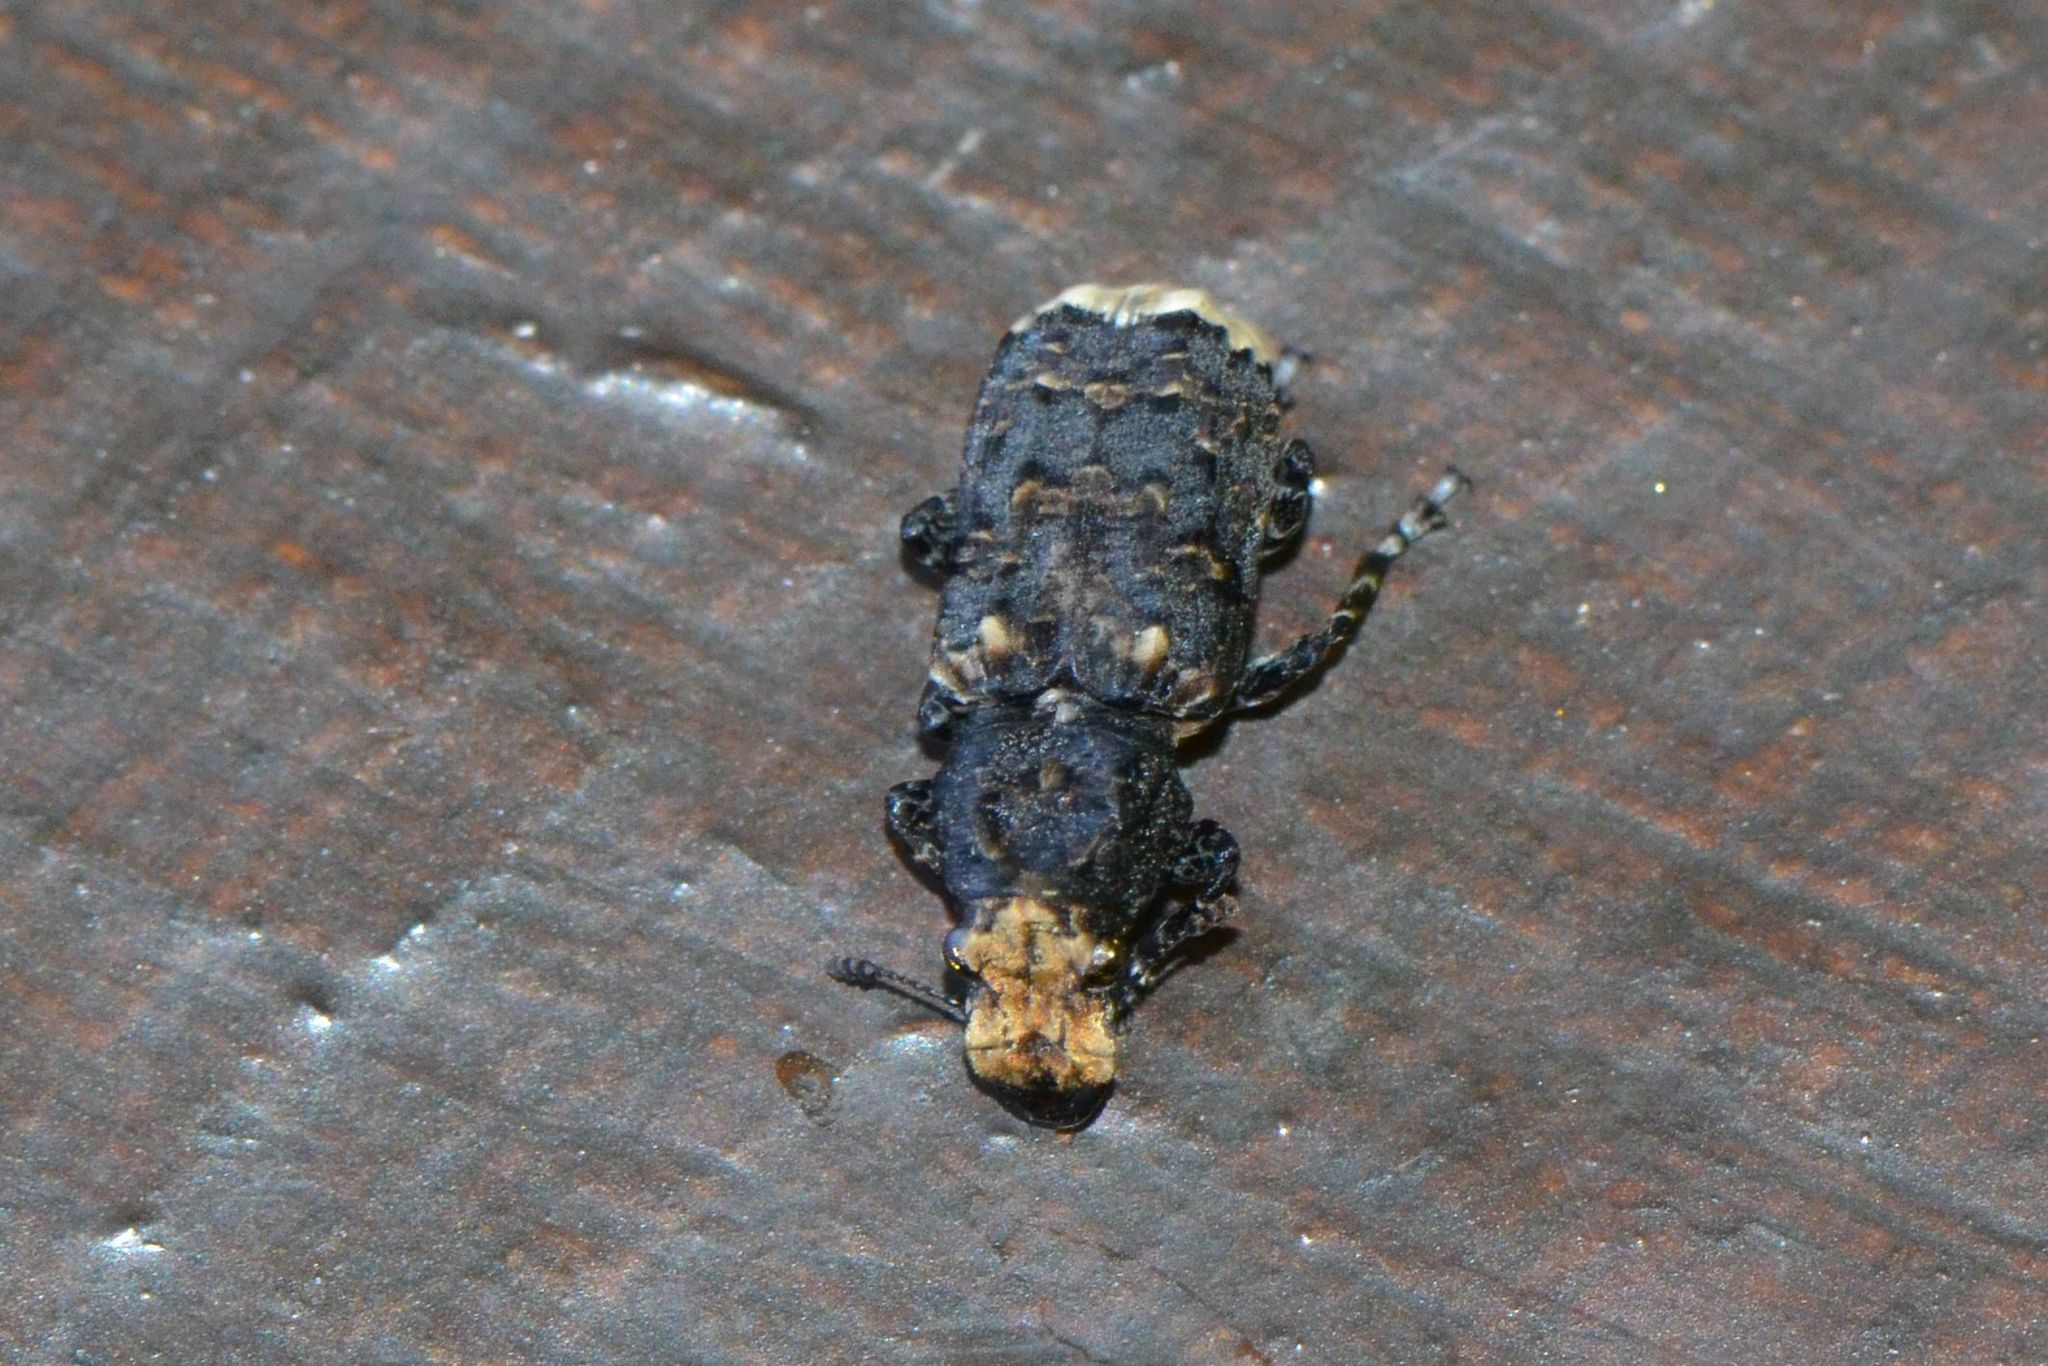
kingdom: Animalia
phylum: Arthropoda
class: Insecta
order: Coleoptera
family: Anthribidae
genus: Platyrhinus
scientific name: Platyrhinus resinosus
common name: Cramp-ball fungus weevil
